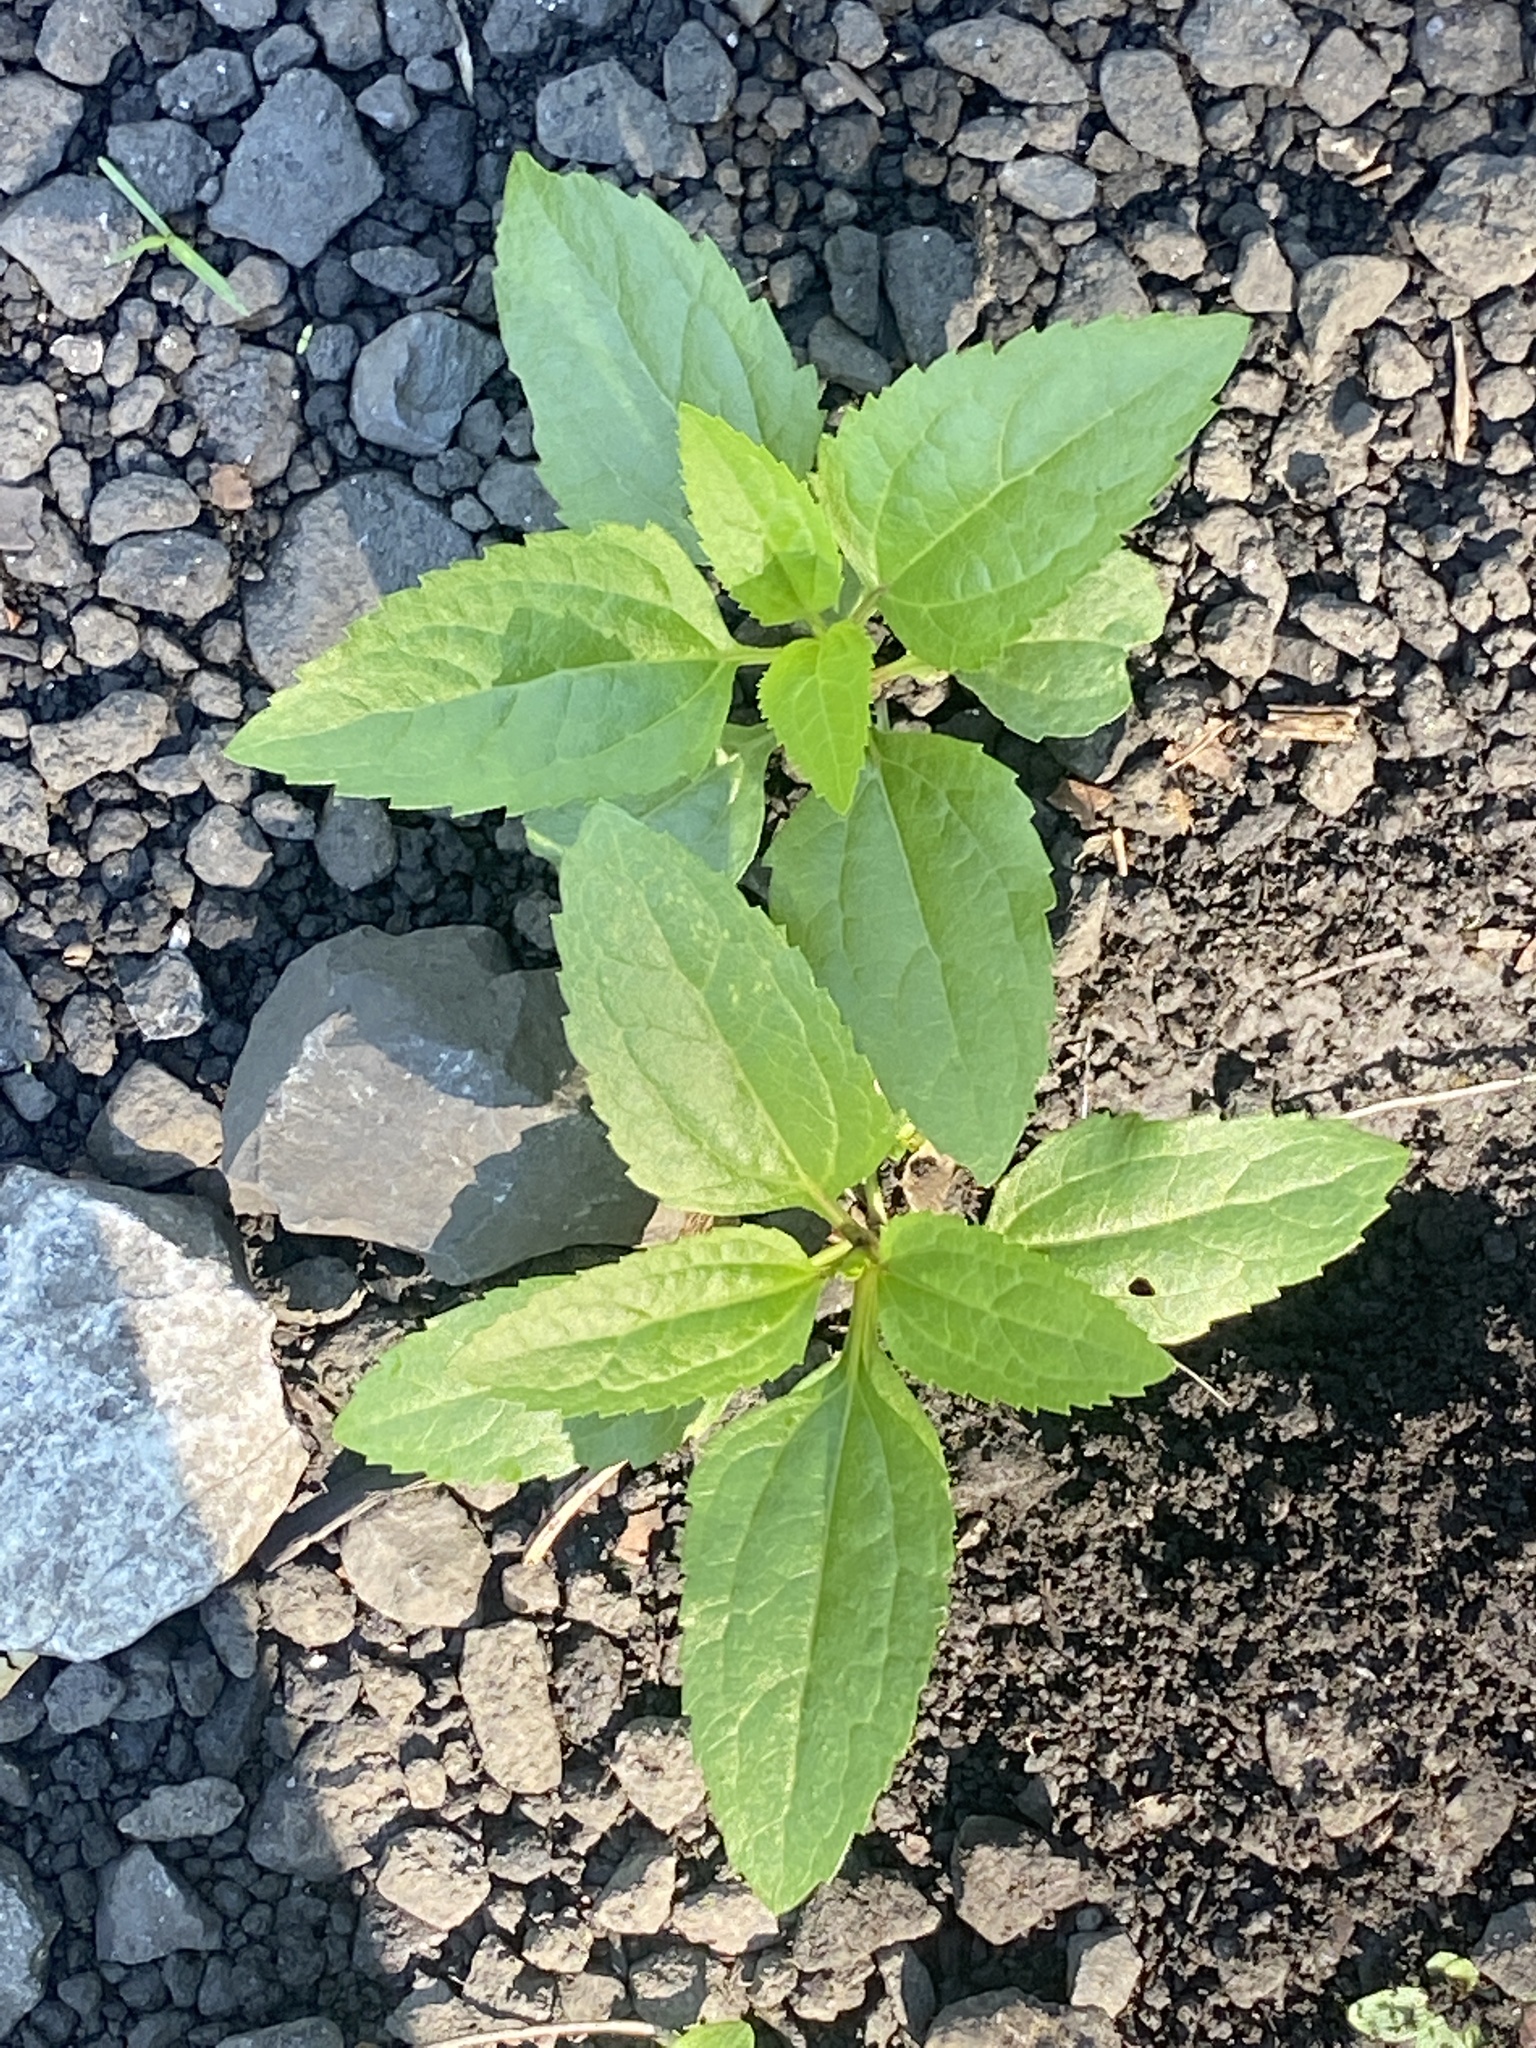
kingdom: Plantae
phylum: Tracheophyta
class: Magnoliopsida
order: Asterales
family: Asteraceae
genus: Eupatorium
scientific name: Eupatorium serotinum
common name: Late boneset
